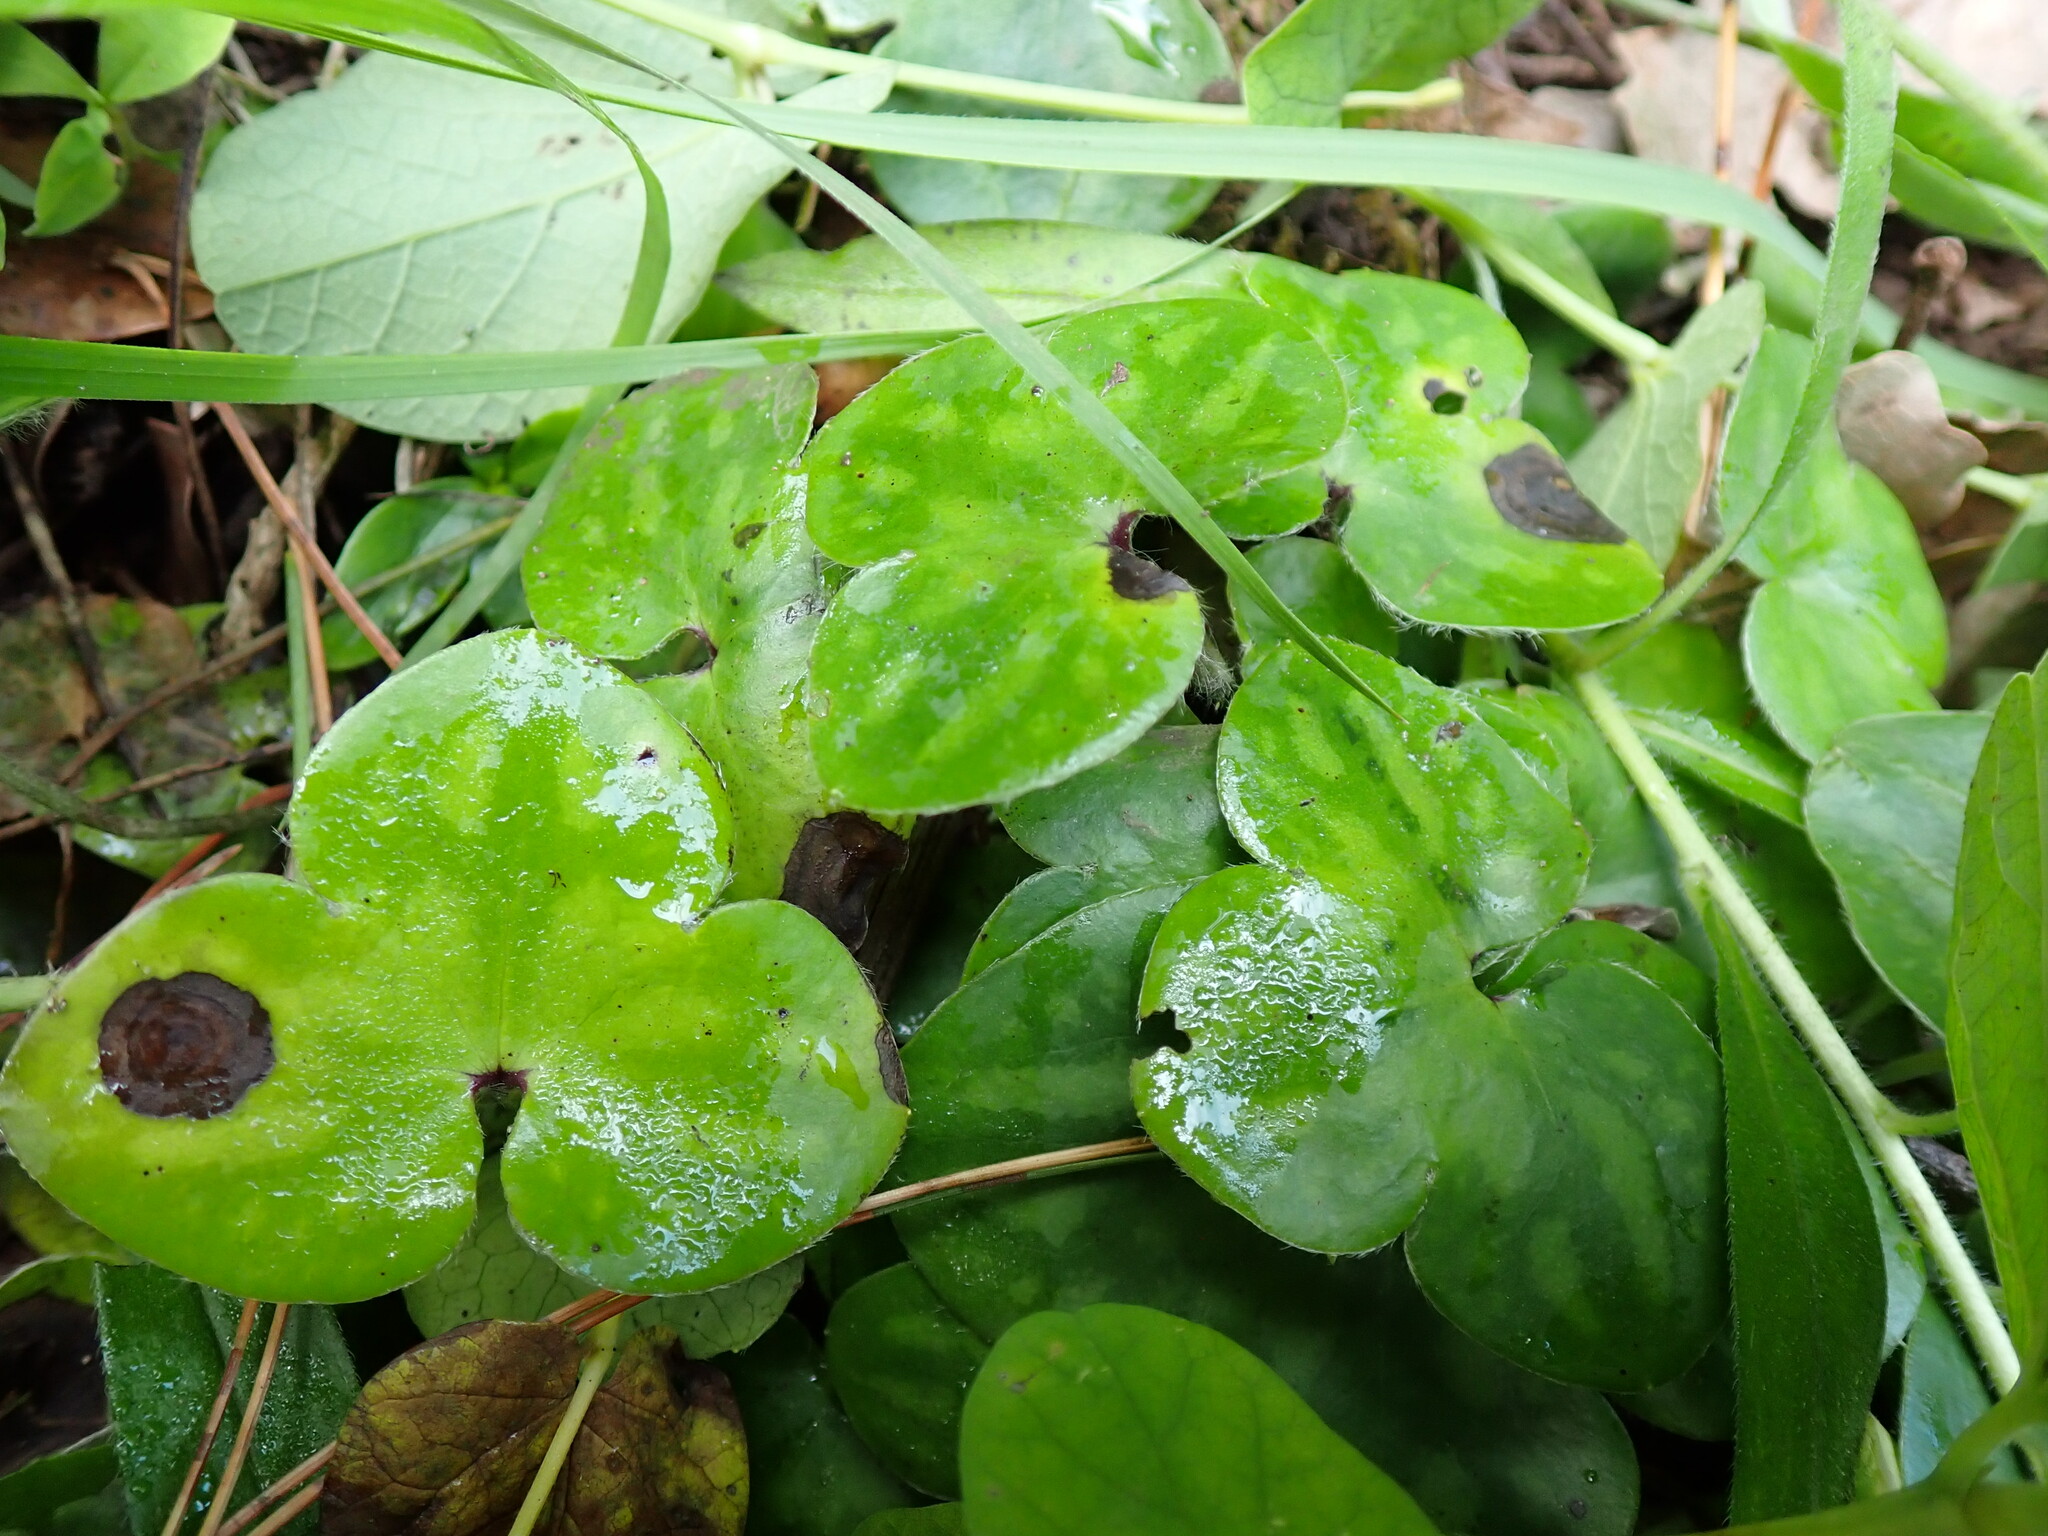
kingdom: Plantae
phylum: Tracheophyta
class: Magnoliopsida
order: Ranunculales
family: Ranunculaceae
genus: Hepatica
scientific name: Hepatica nobilis
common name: Liverleaf
